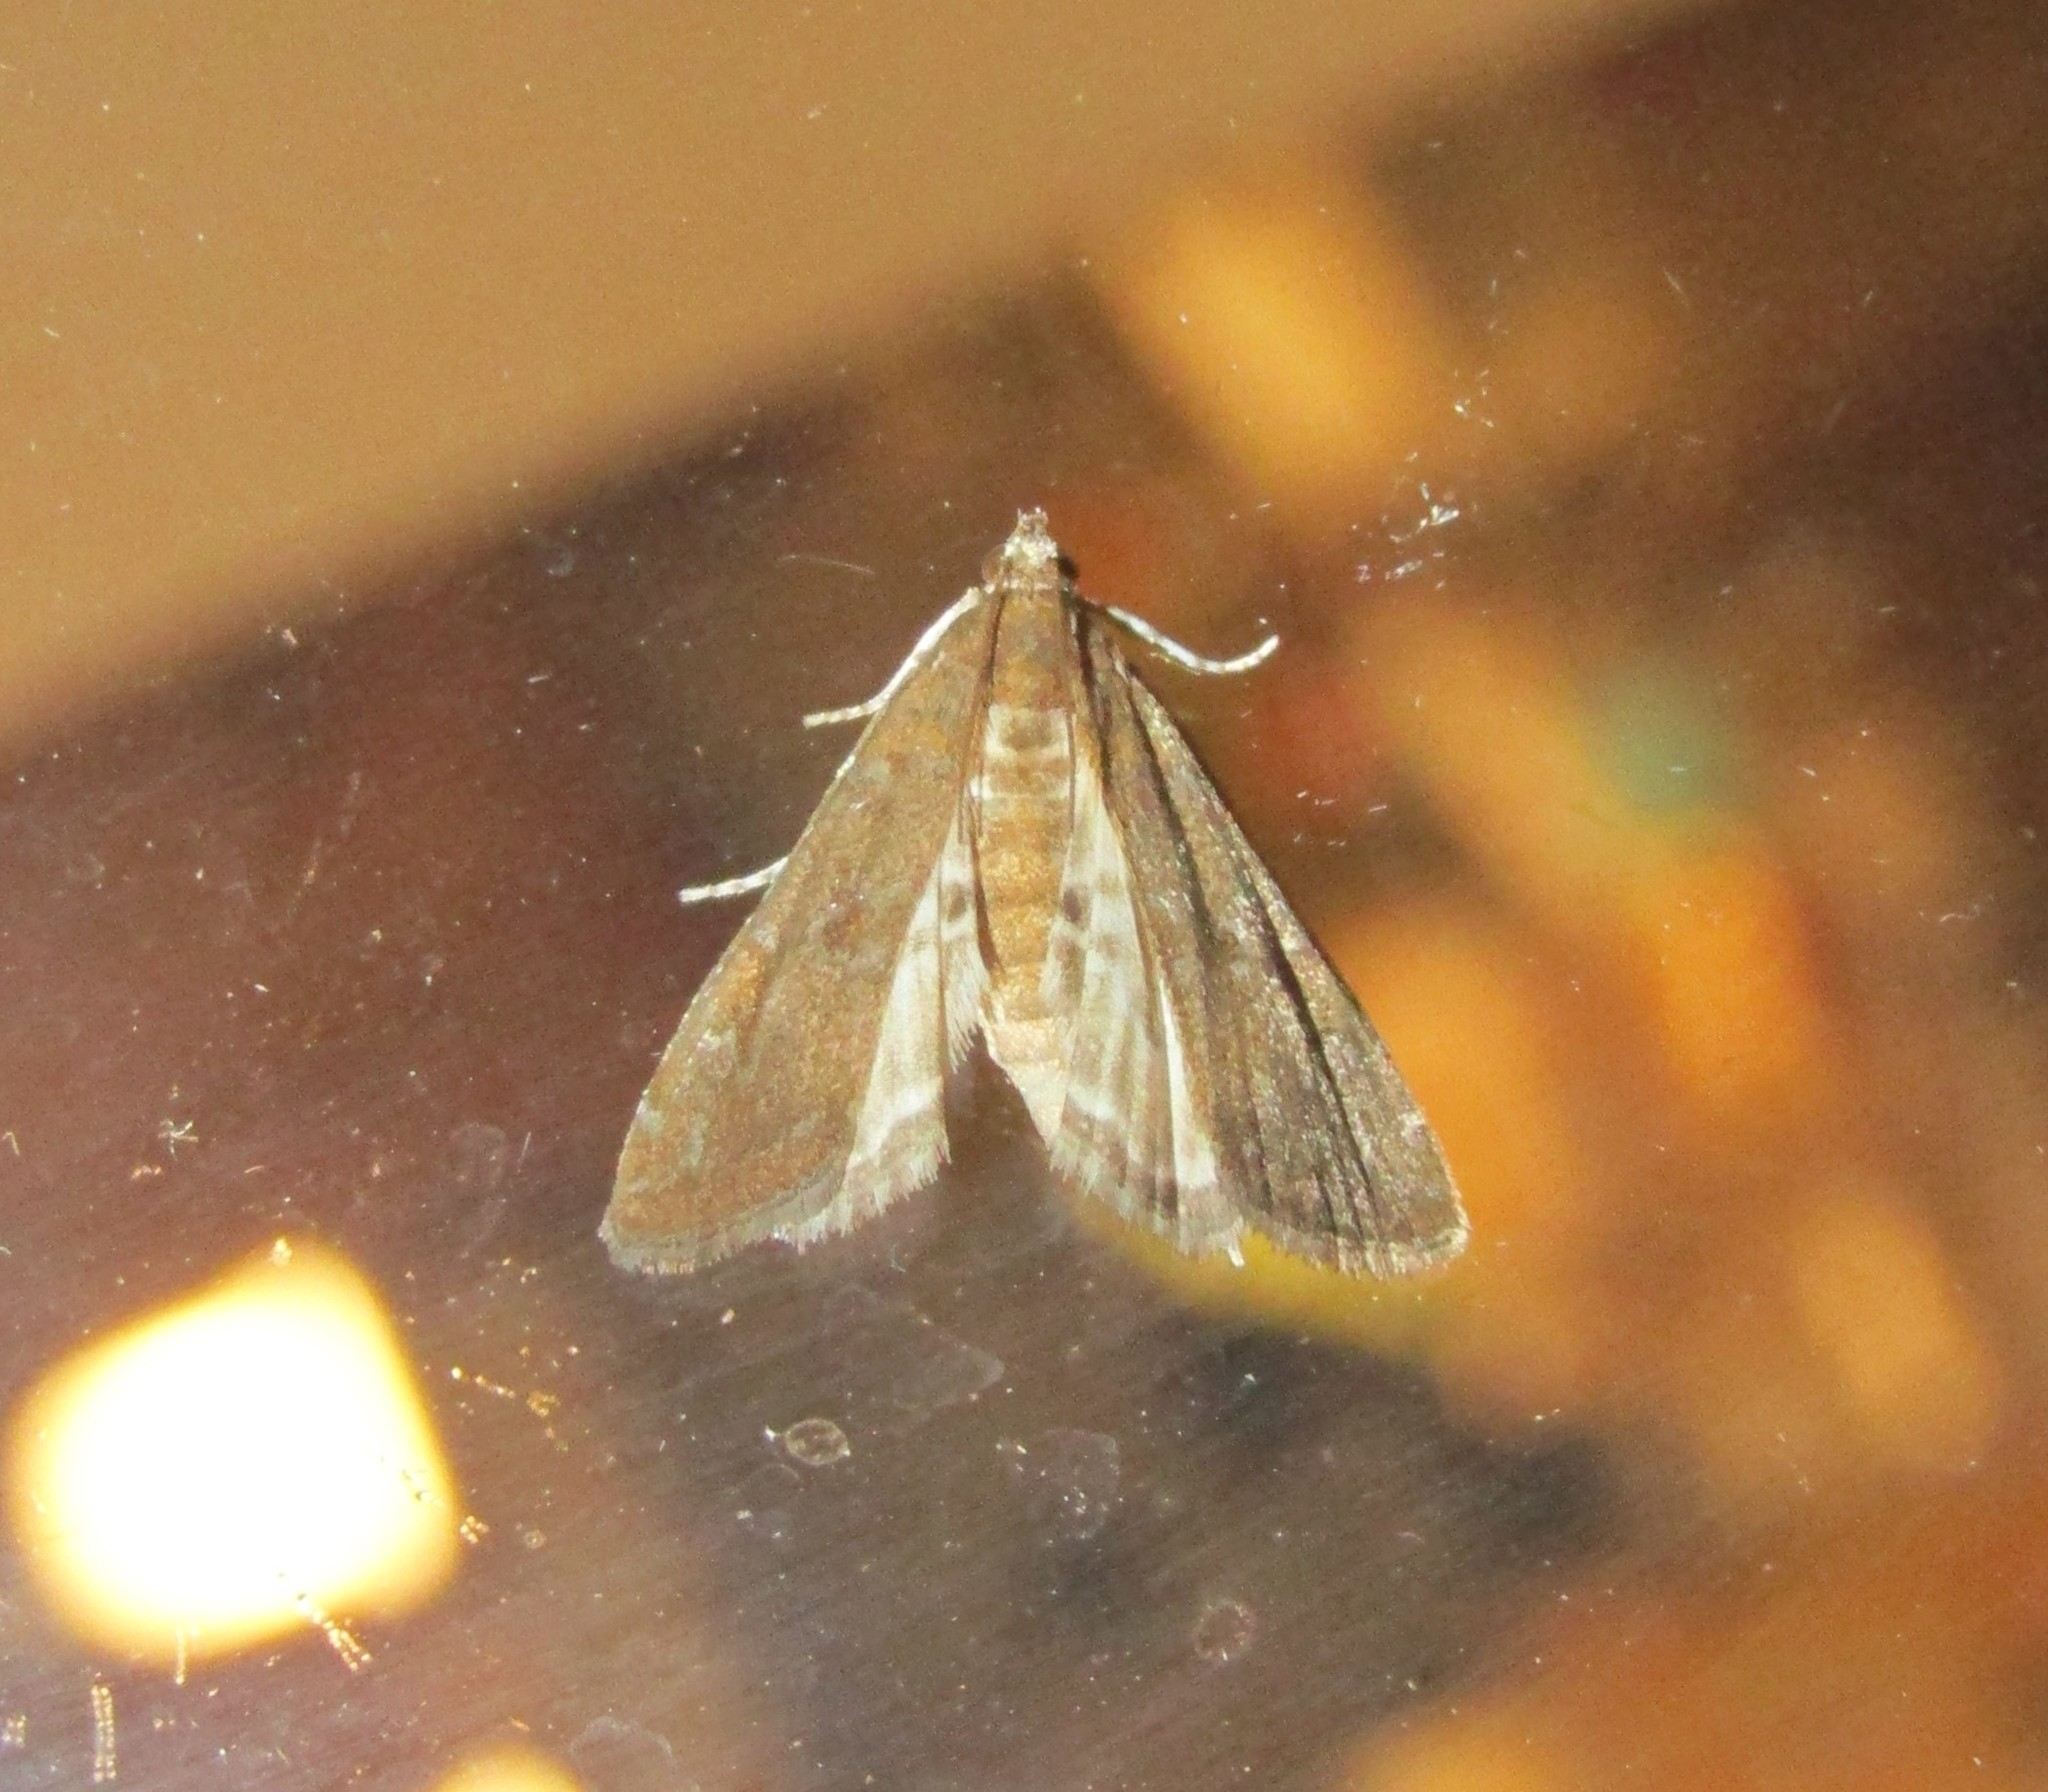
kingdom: Animalia
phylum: Arthropoda
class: Insecta
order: Lepidoptera
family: Crambidae
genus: Elophila
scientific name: Elophila gyralis
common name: Waterlily borer moth
